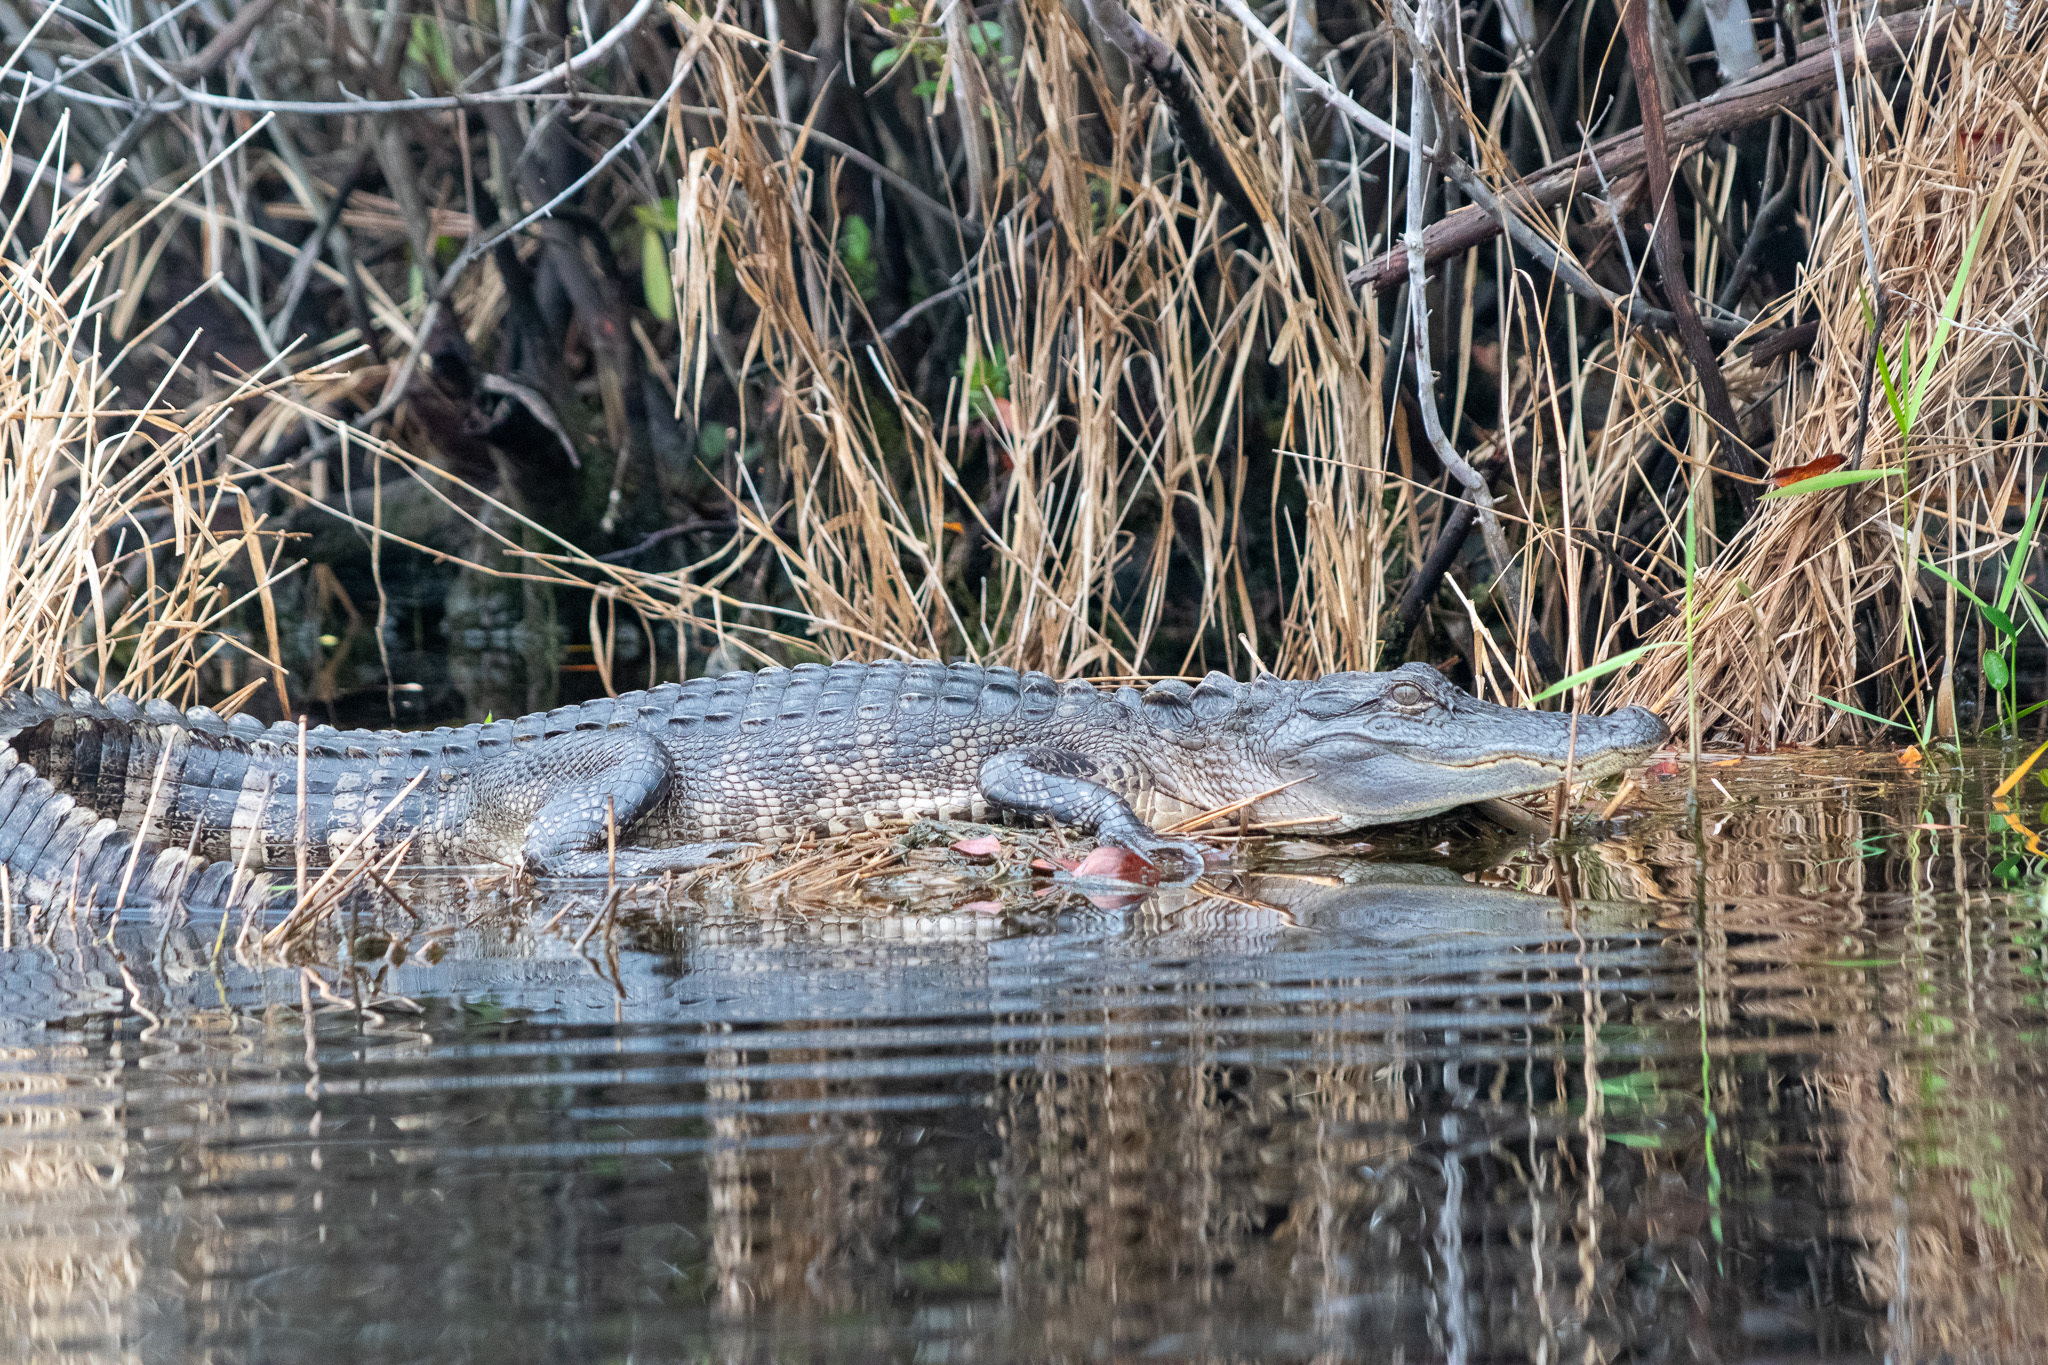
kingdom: Animalia
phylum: Chordata
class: Crocodylia
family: Alligatoridae
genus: Alligator
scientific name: Alligator mississippiensis
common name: American alligator
